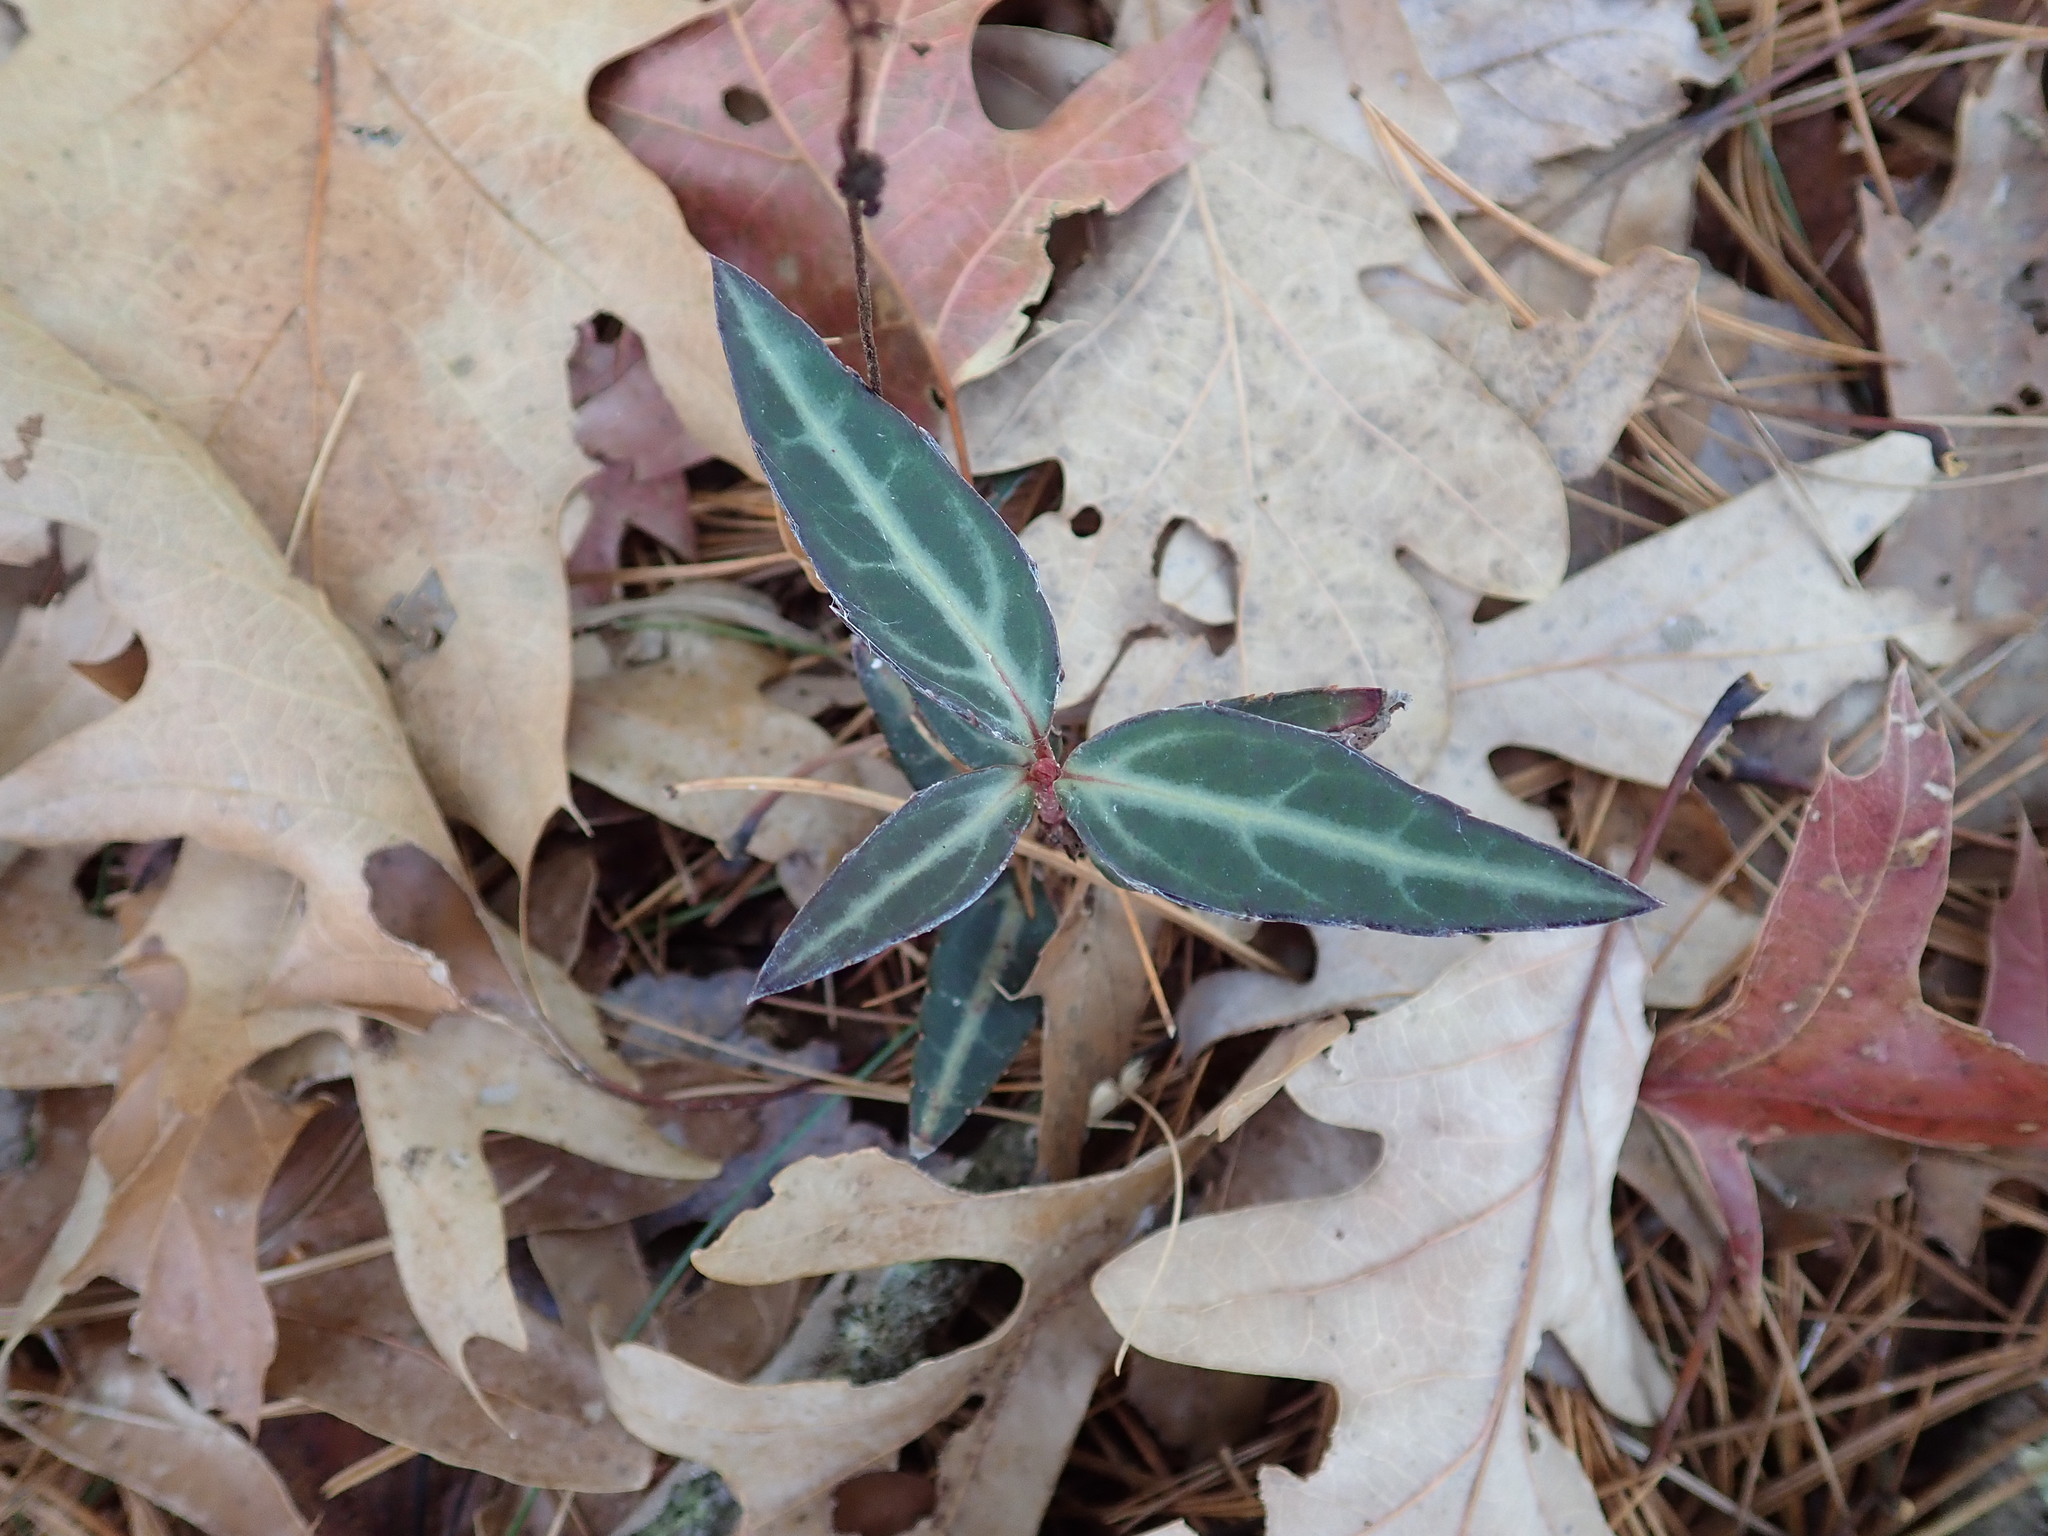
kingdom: Plantae
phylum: Tracheophyta
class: Magnoliopsida
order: Ericales
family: Ericaceae
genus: Chimaphila
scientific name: Chimaphila maculata
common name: Spotted pipsissewa
